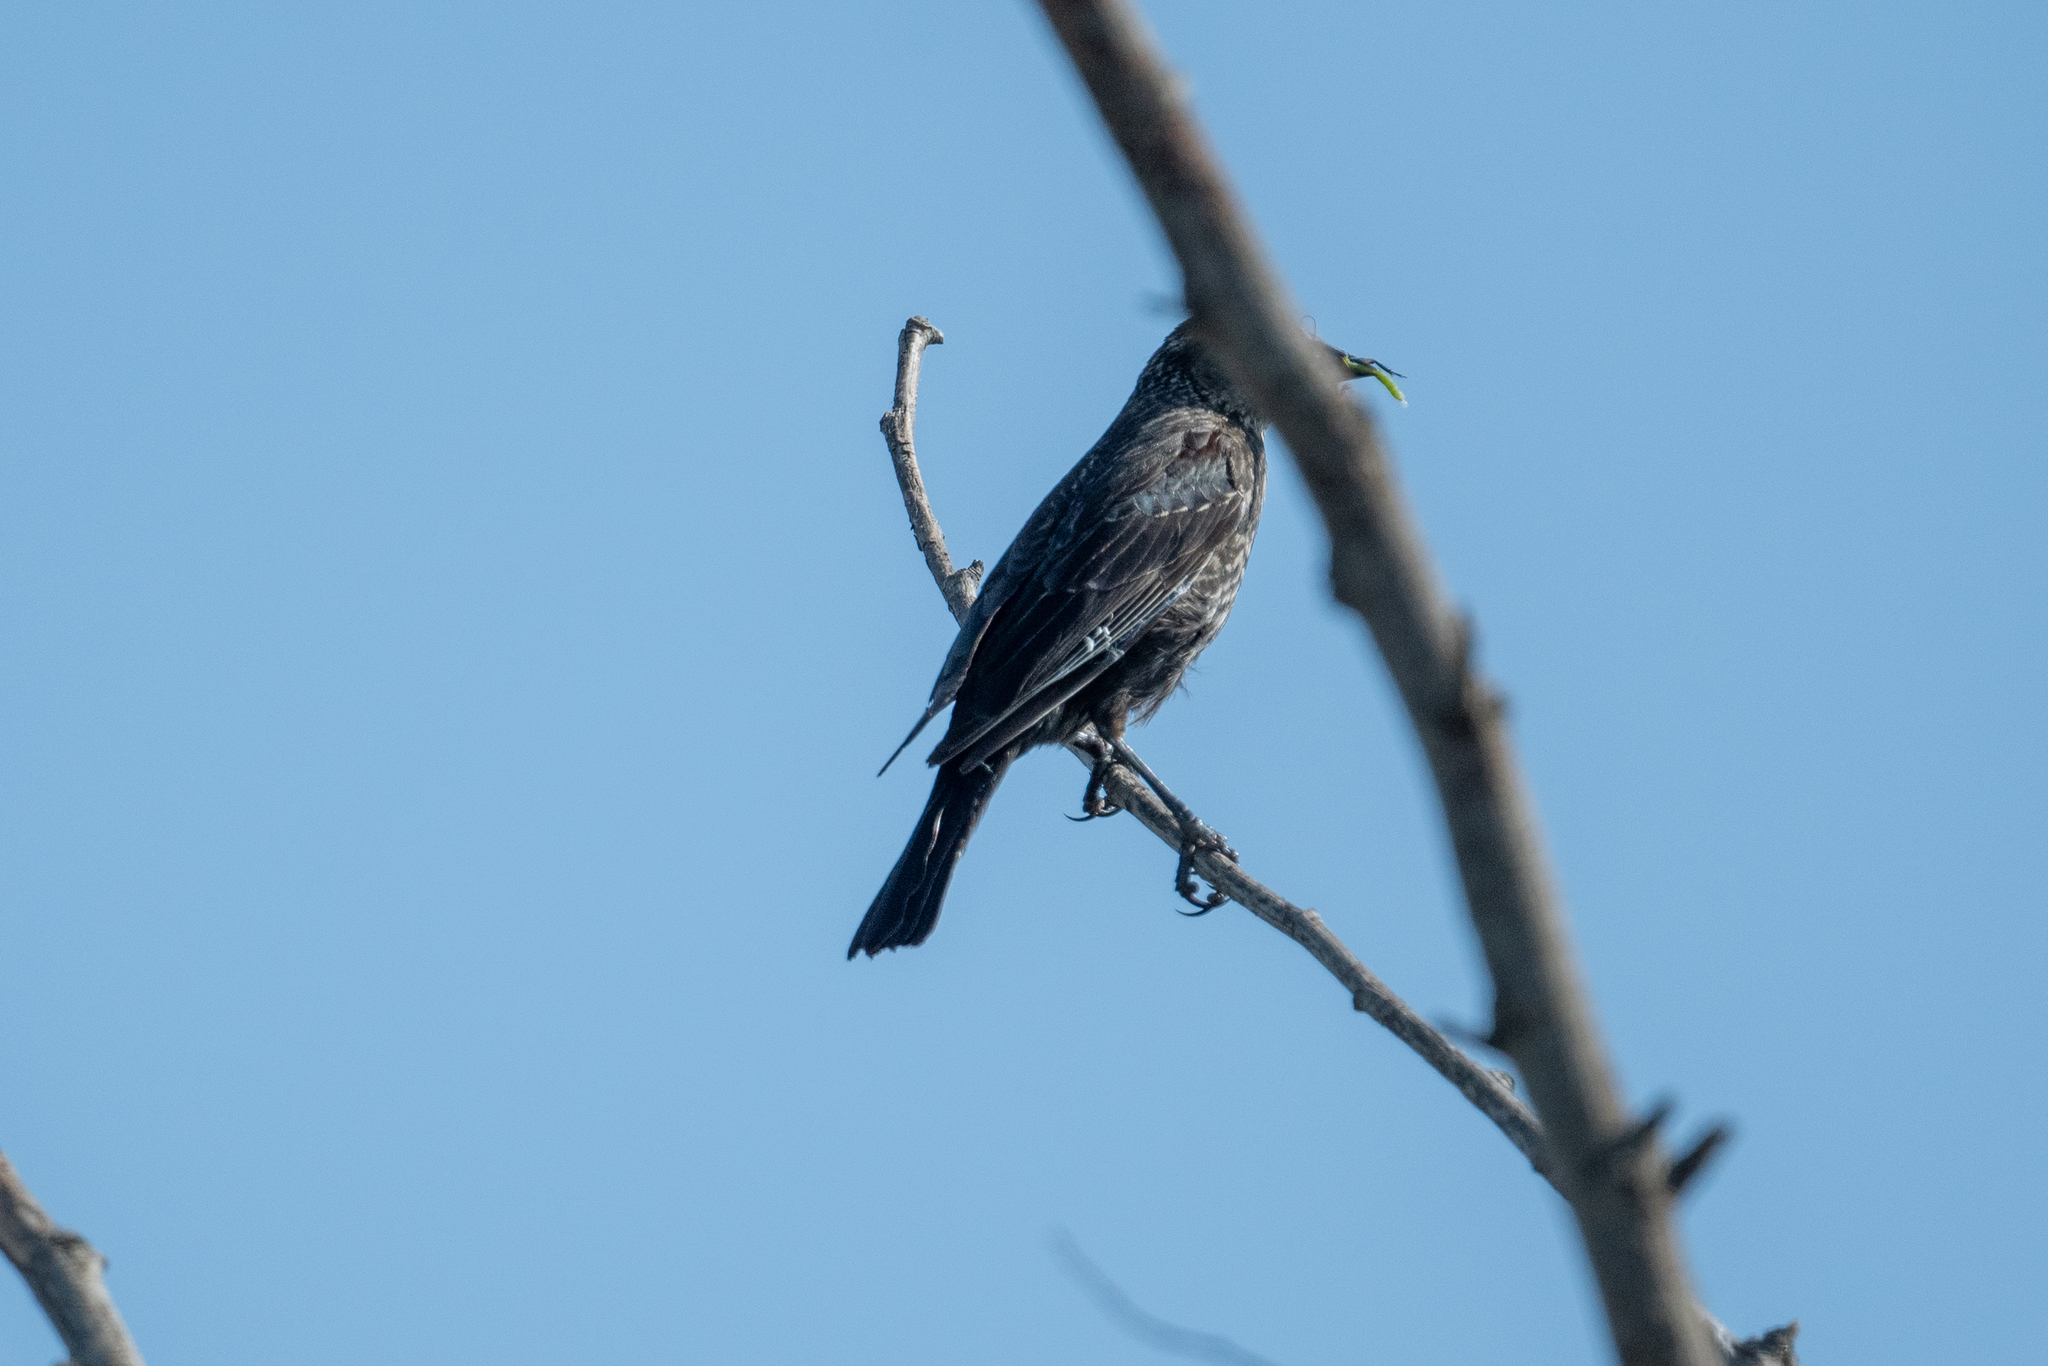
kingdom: Animalia
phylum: Chordata
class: Aves
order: Passeriformes
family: Icteridae
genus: Agelaius
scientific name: Agelaius phoeniceus
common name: Red-winged blackbird
